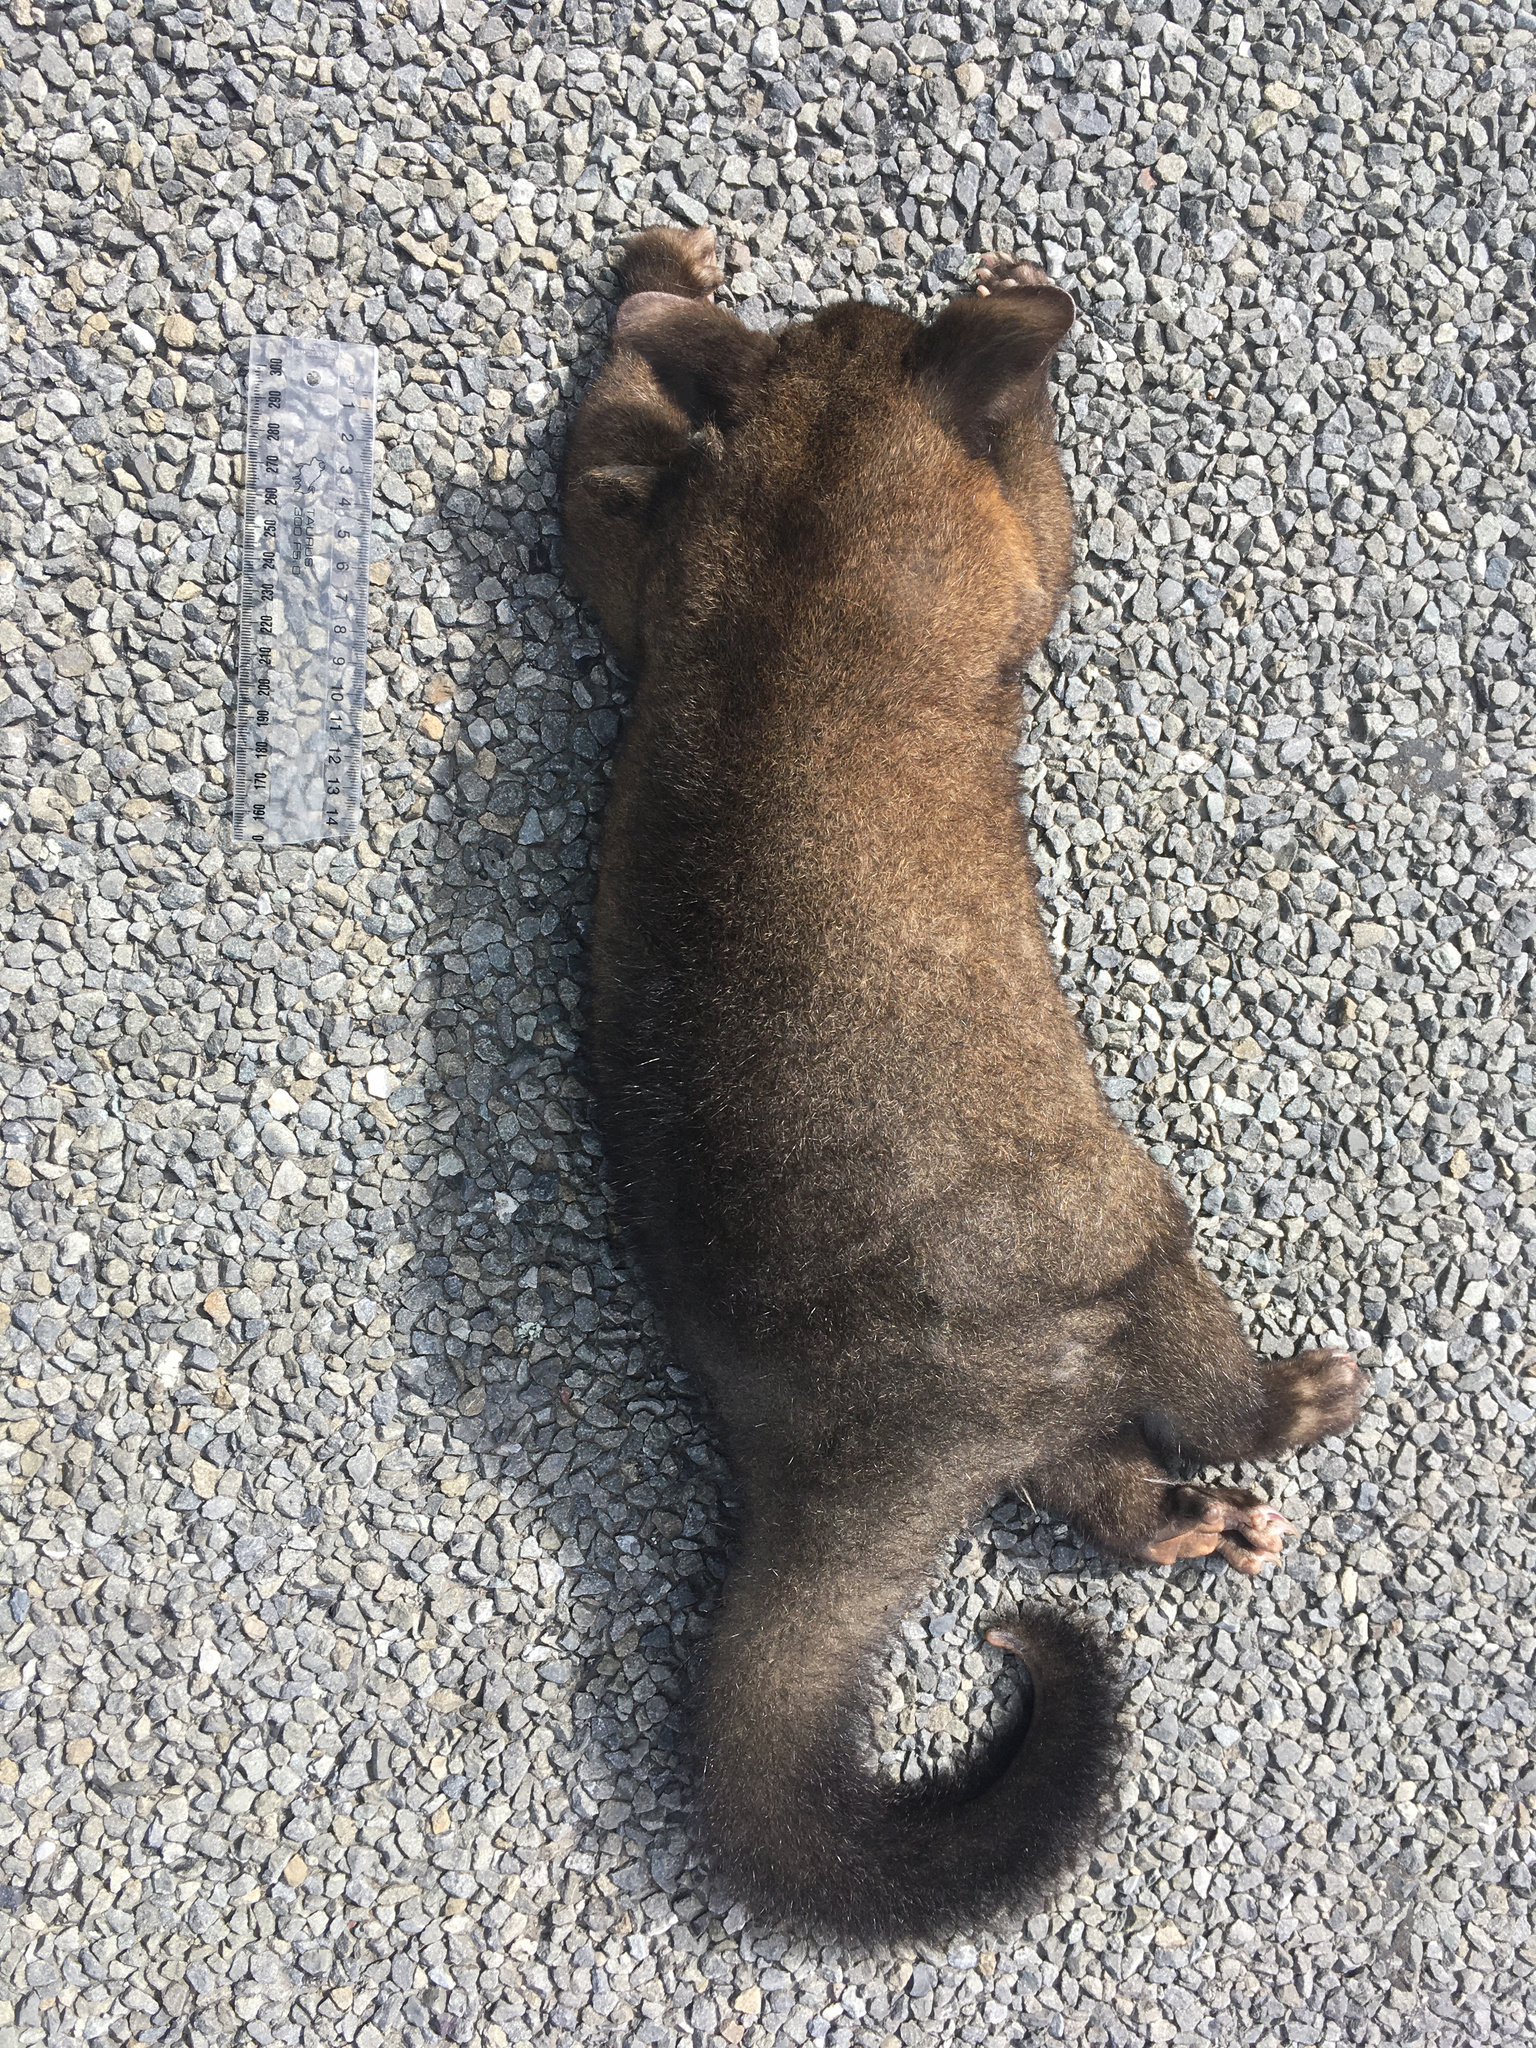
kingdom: Animalia
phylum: Chordata
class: Mammalia
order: Diprotodontia
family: Phalangeridae
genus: Trichosurus
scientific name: Trichosurus vulpecula
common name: Common brushtail
